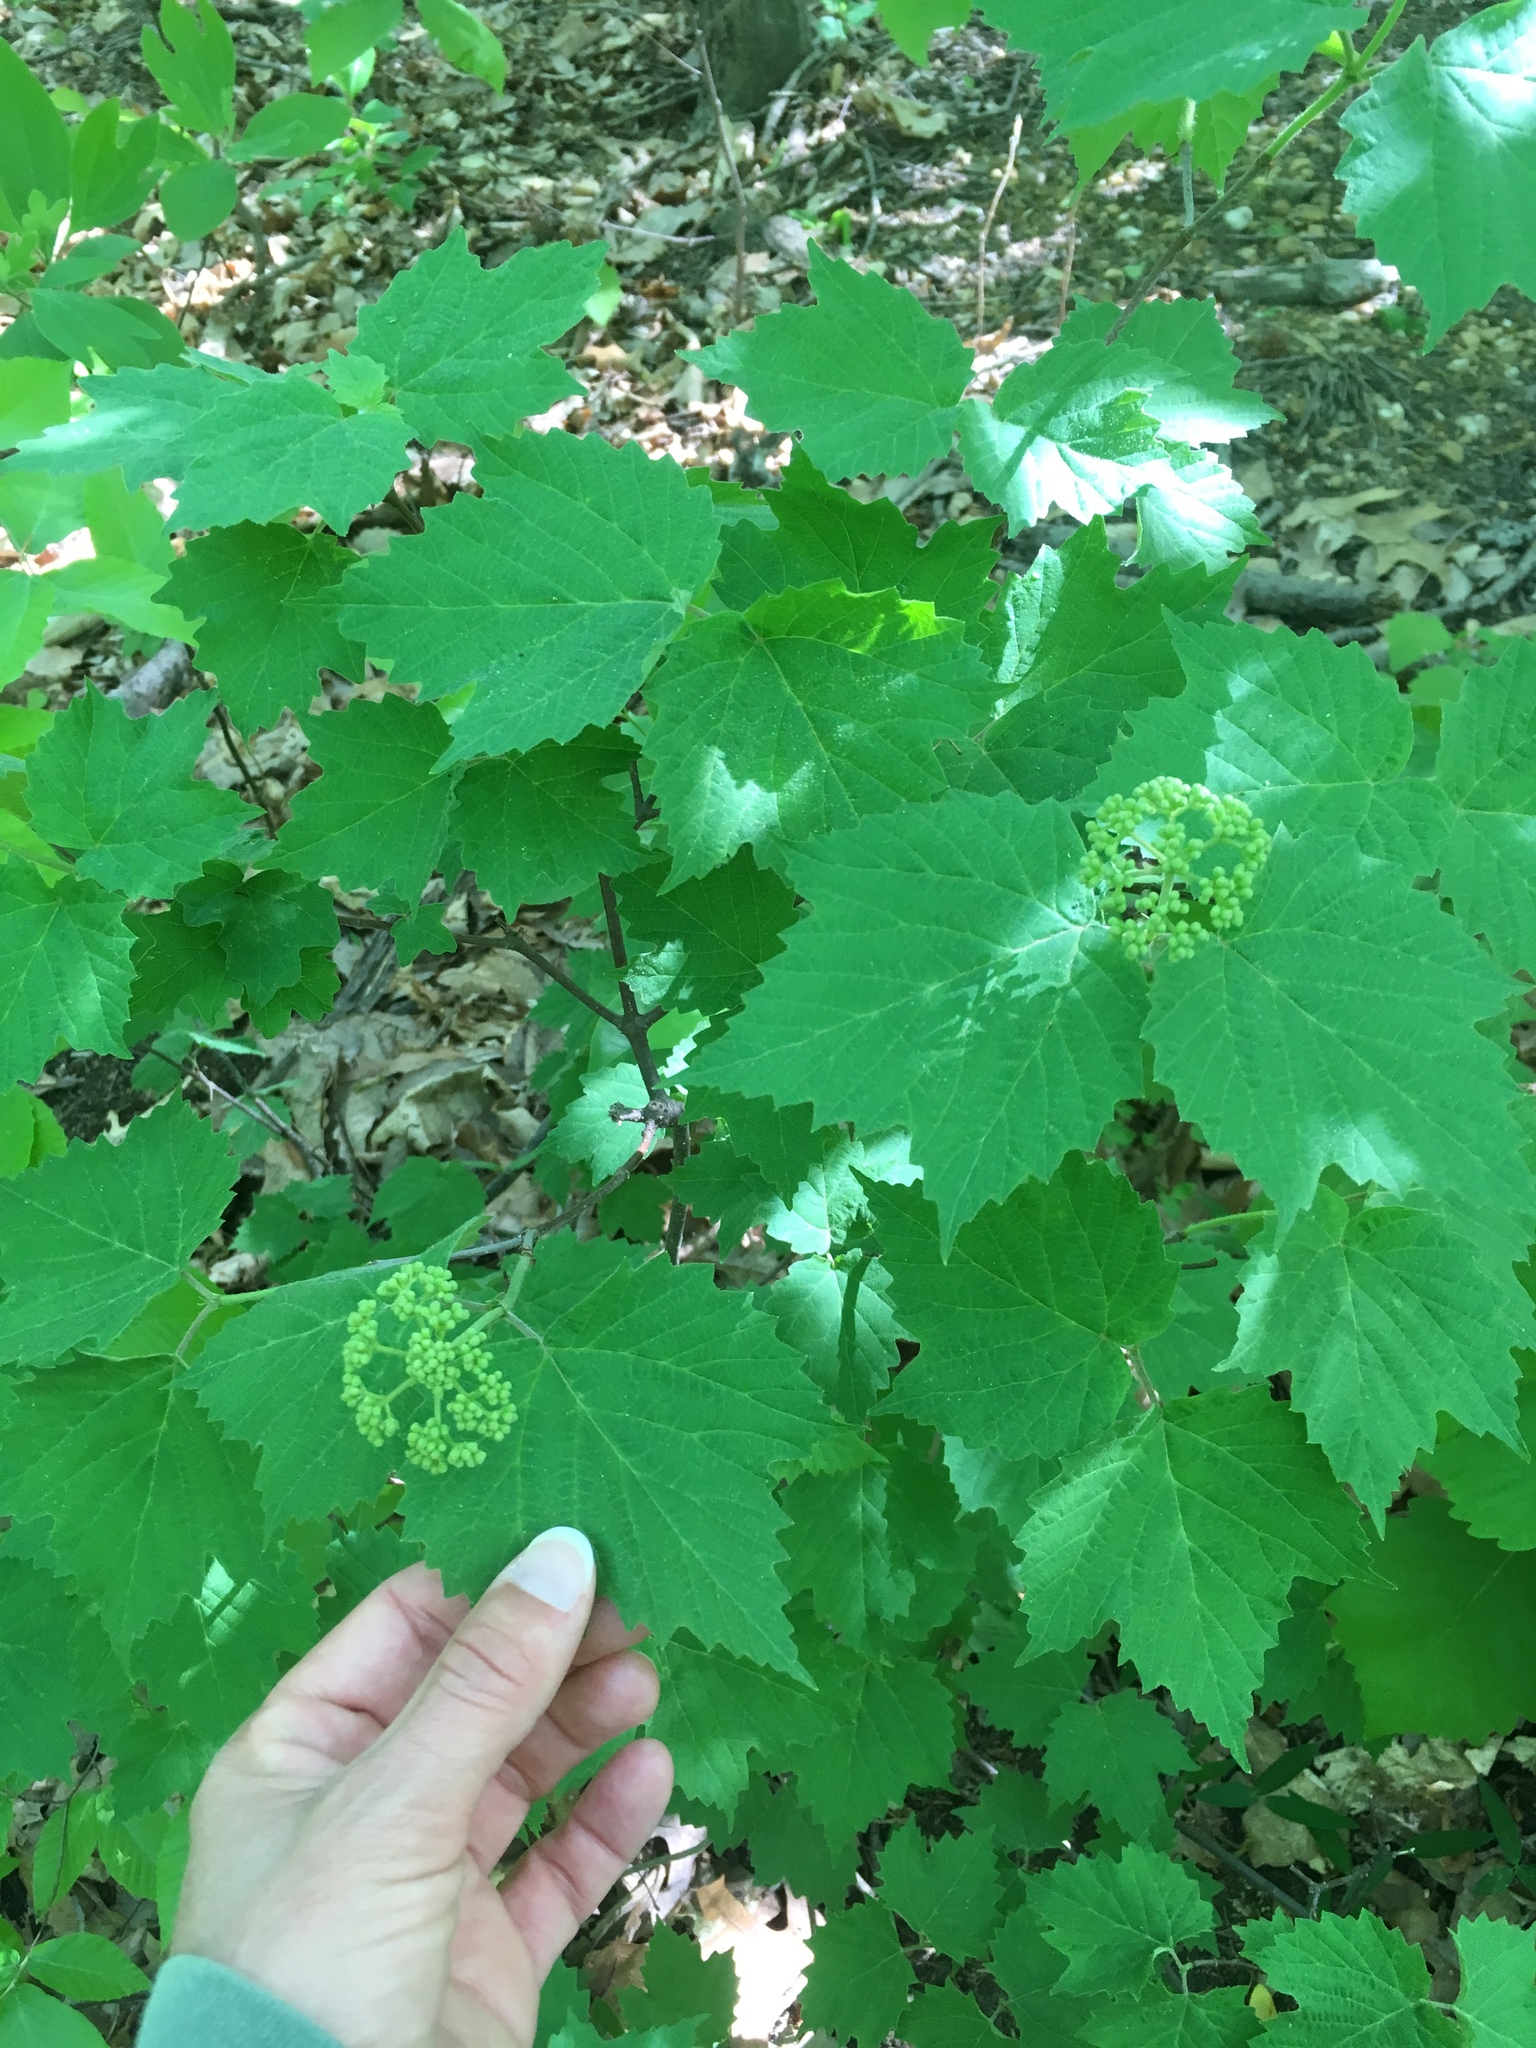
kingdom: Plantae
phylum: Tracheophyta
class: Magnoliopsida
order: Dipsacales
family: Viburnaceae
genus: Viburnum
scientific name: Viburnum acerifolium
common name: Dockmackie
